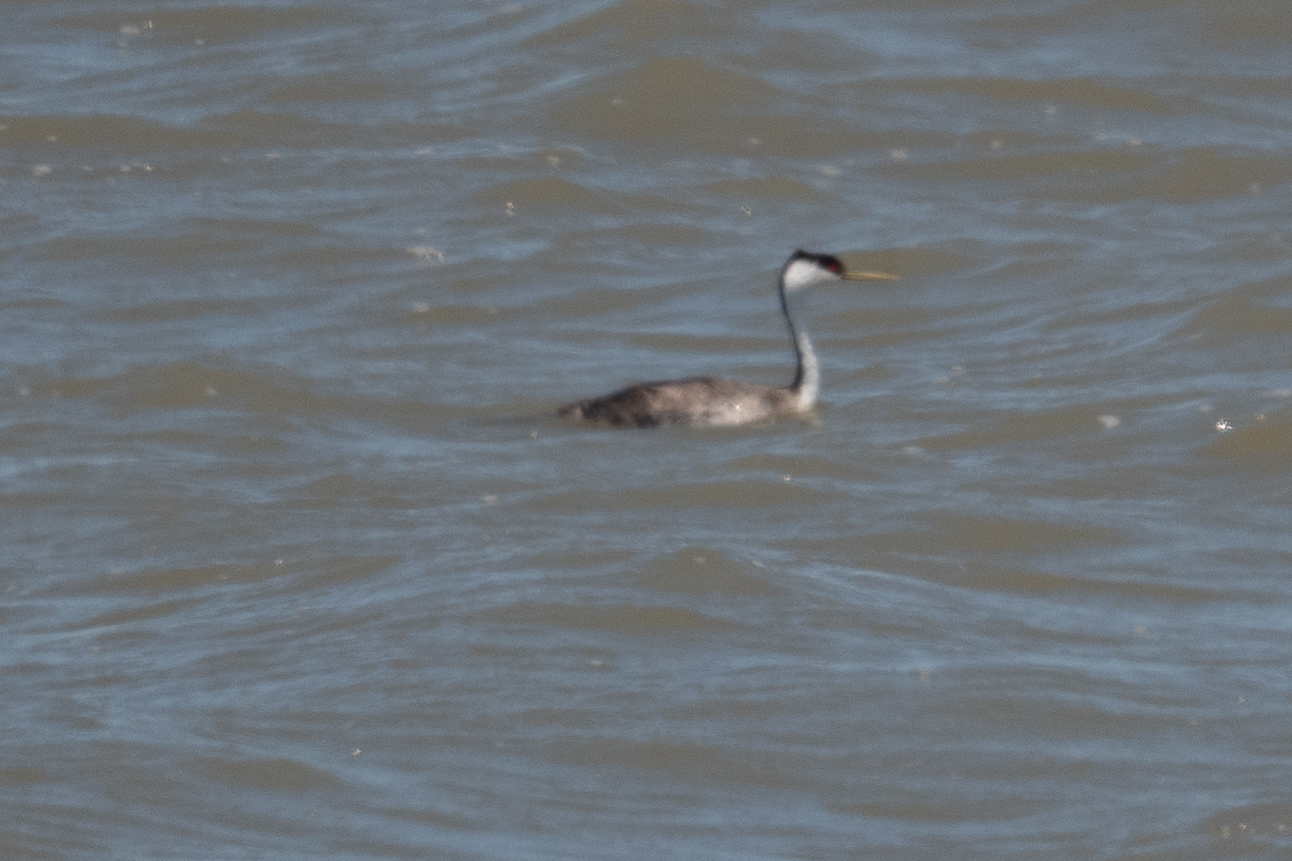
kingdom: Animalia
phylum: Chordata
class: Aves
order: Podicipediformes
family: Podicipedidae
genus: Aechmophorus
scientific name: Aechmophorus occidentalis
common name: Western grebe
